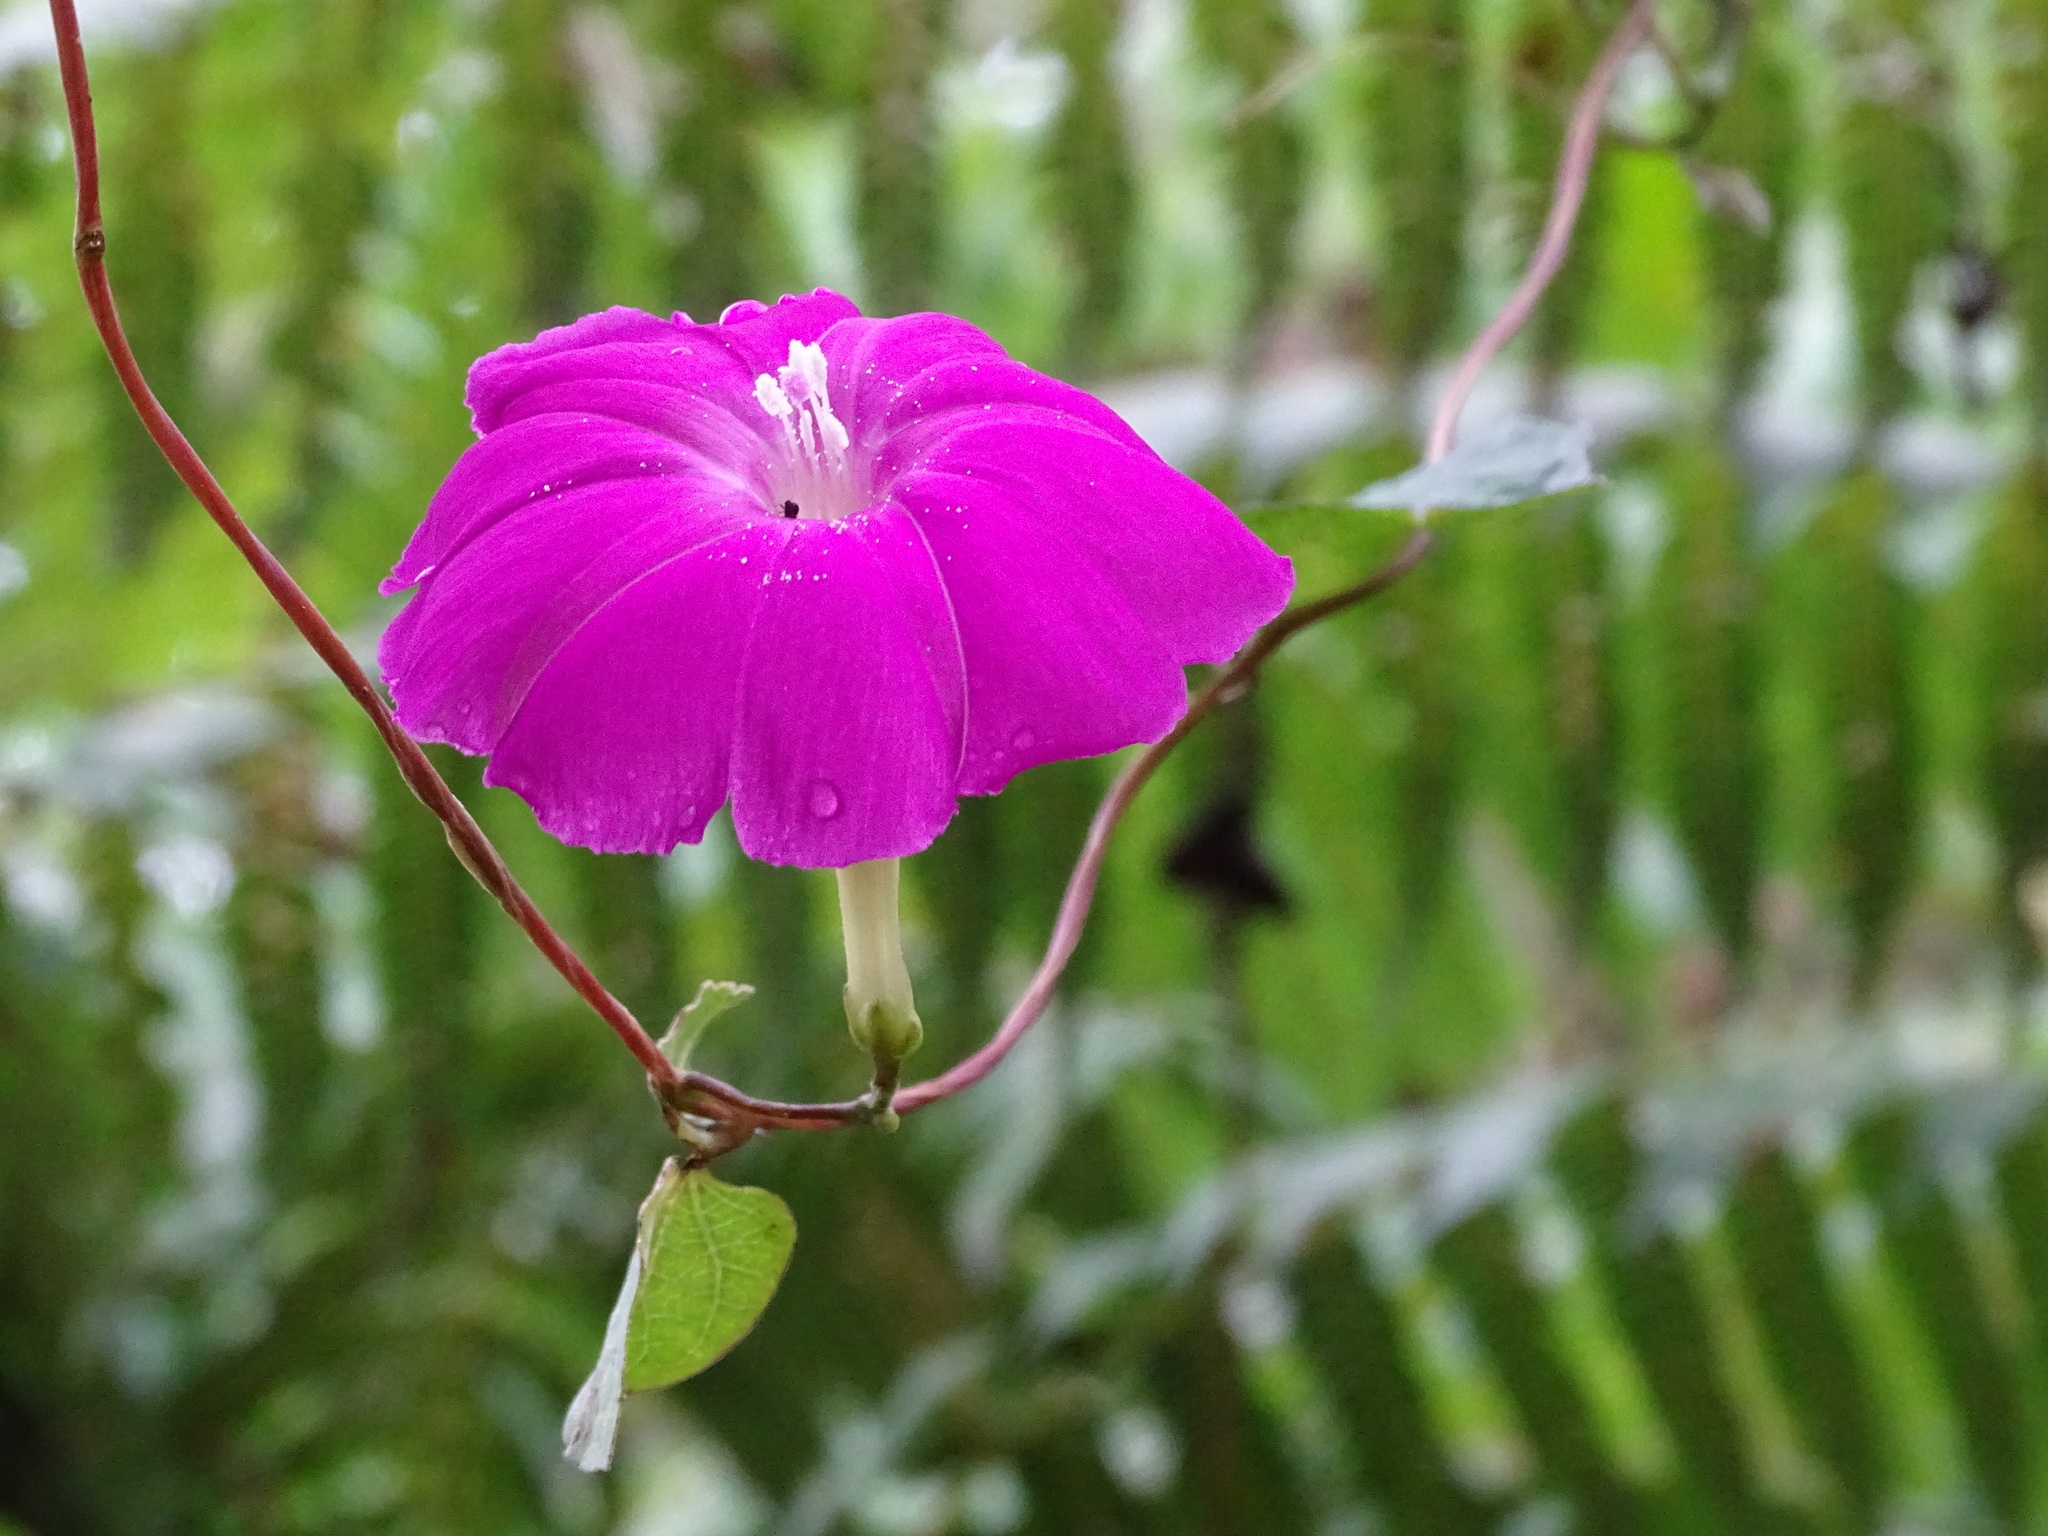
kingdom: Plantae
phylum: Tracheophyta
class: Magnoliopsida
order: Solanales
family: Convolvulaceae
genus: Ipomoea
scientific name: Ipomoea dumosa
